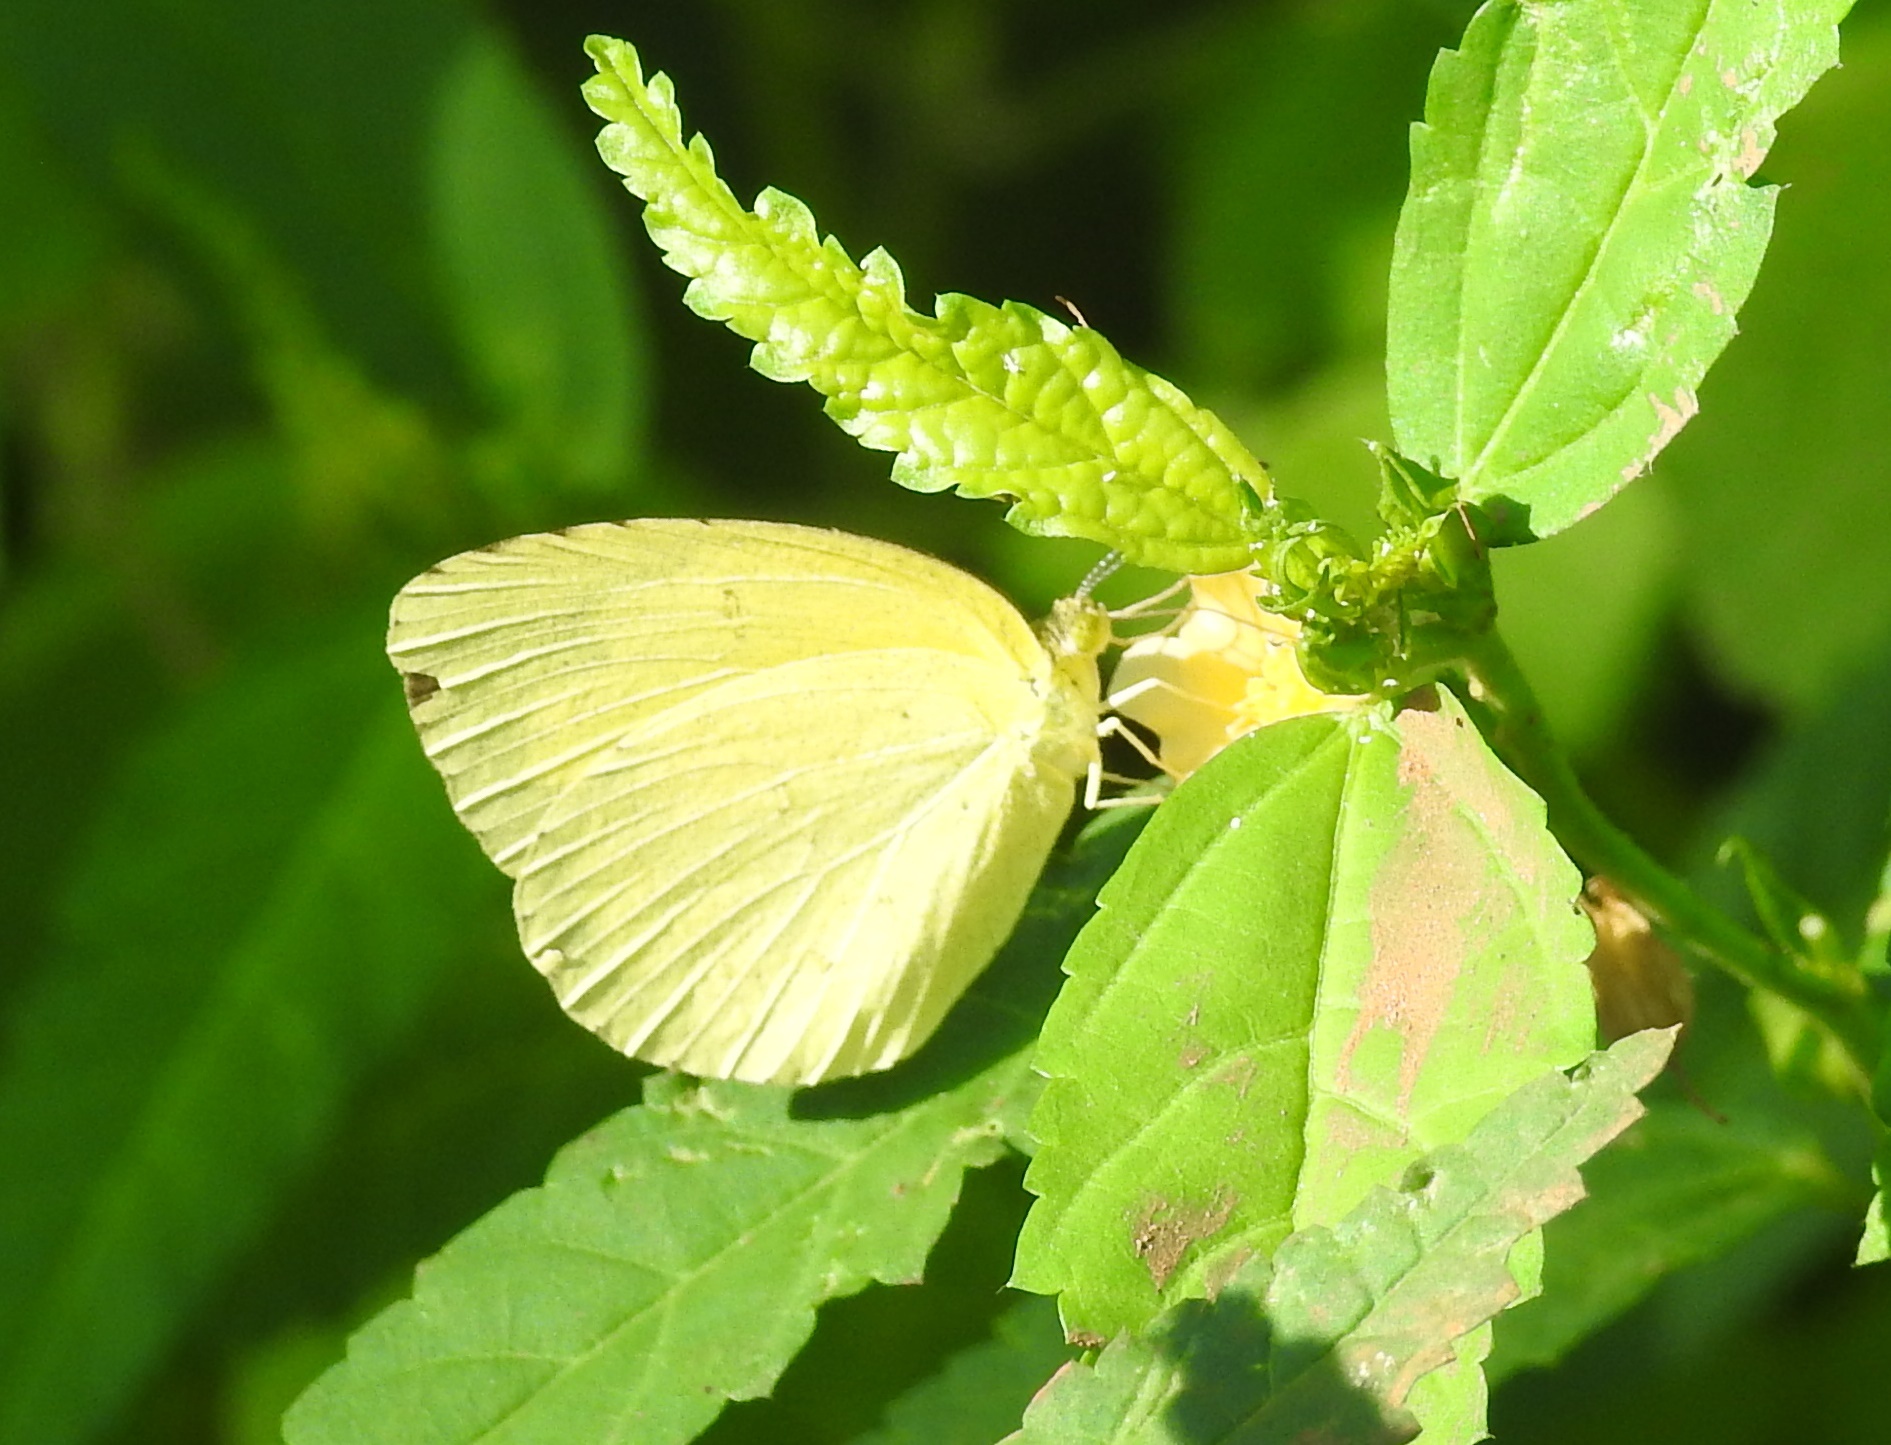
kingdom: Animalia
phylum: Arthropoda
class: Insecta
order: Lepidoptera
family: Pieridae
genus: Eurema
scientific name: Eurema hecabe
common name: Pale grass yellow
